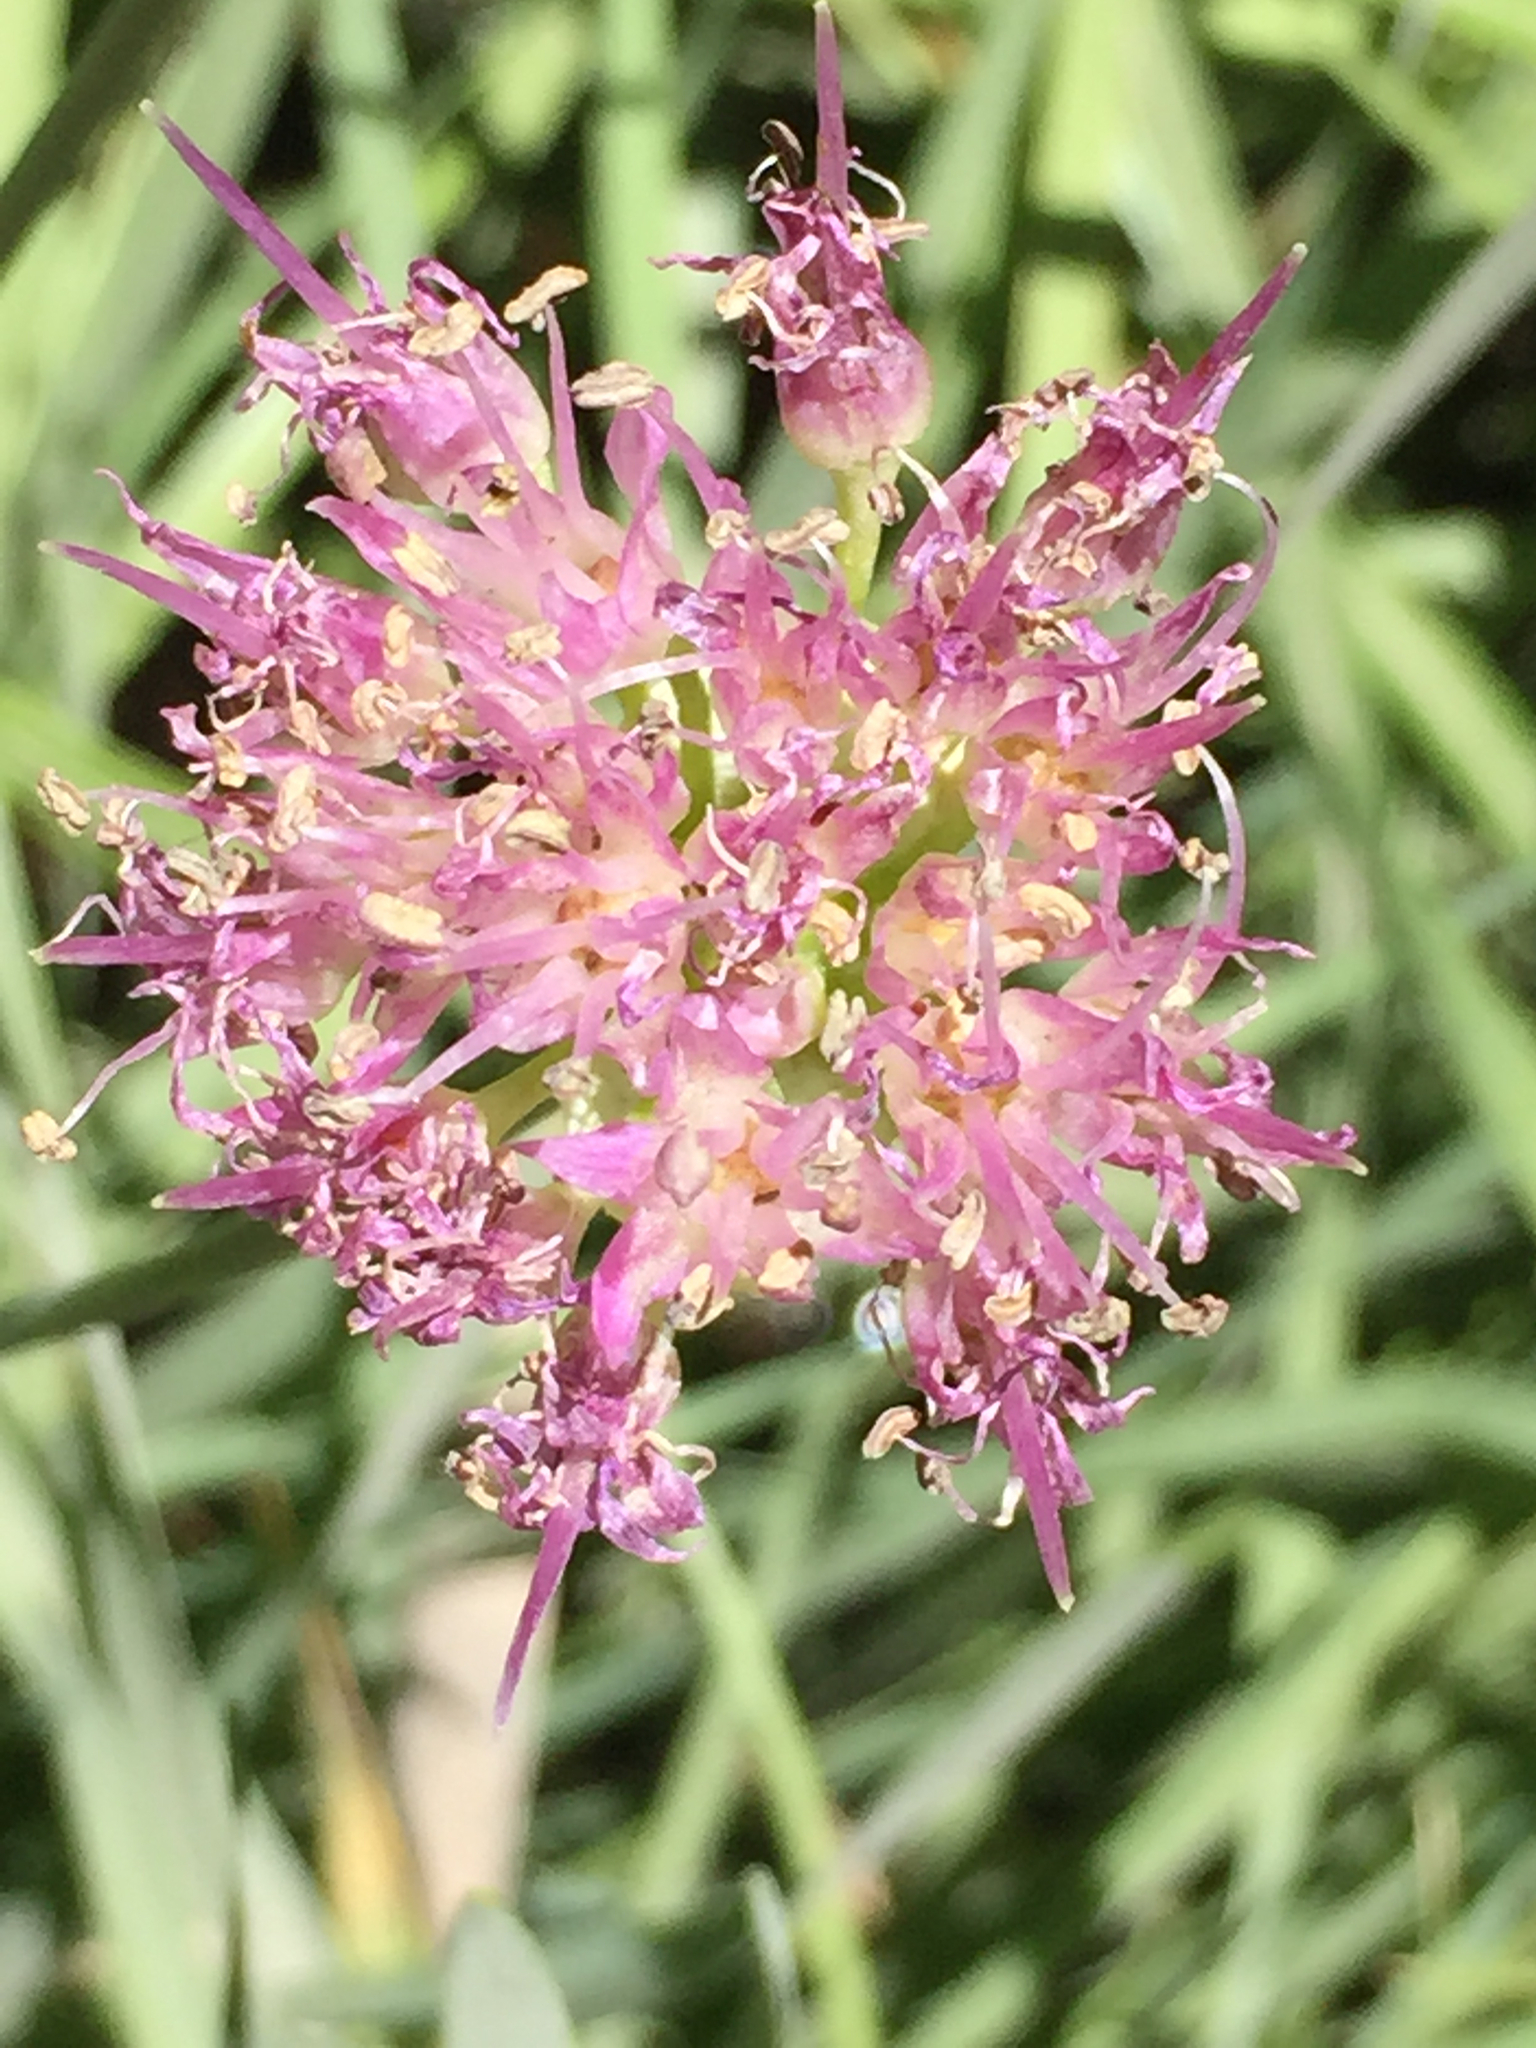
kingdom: Plantae
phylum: Tracheophyta
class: Liliopsida
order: Asparagales
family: Amaryllidaceae
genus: Allium
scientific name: Allium validum
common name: Pacific mountain onion
